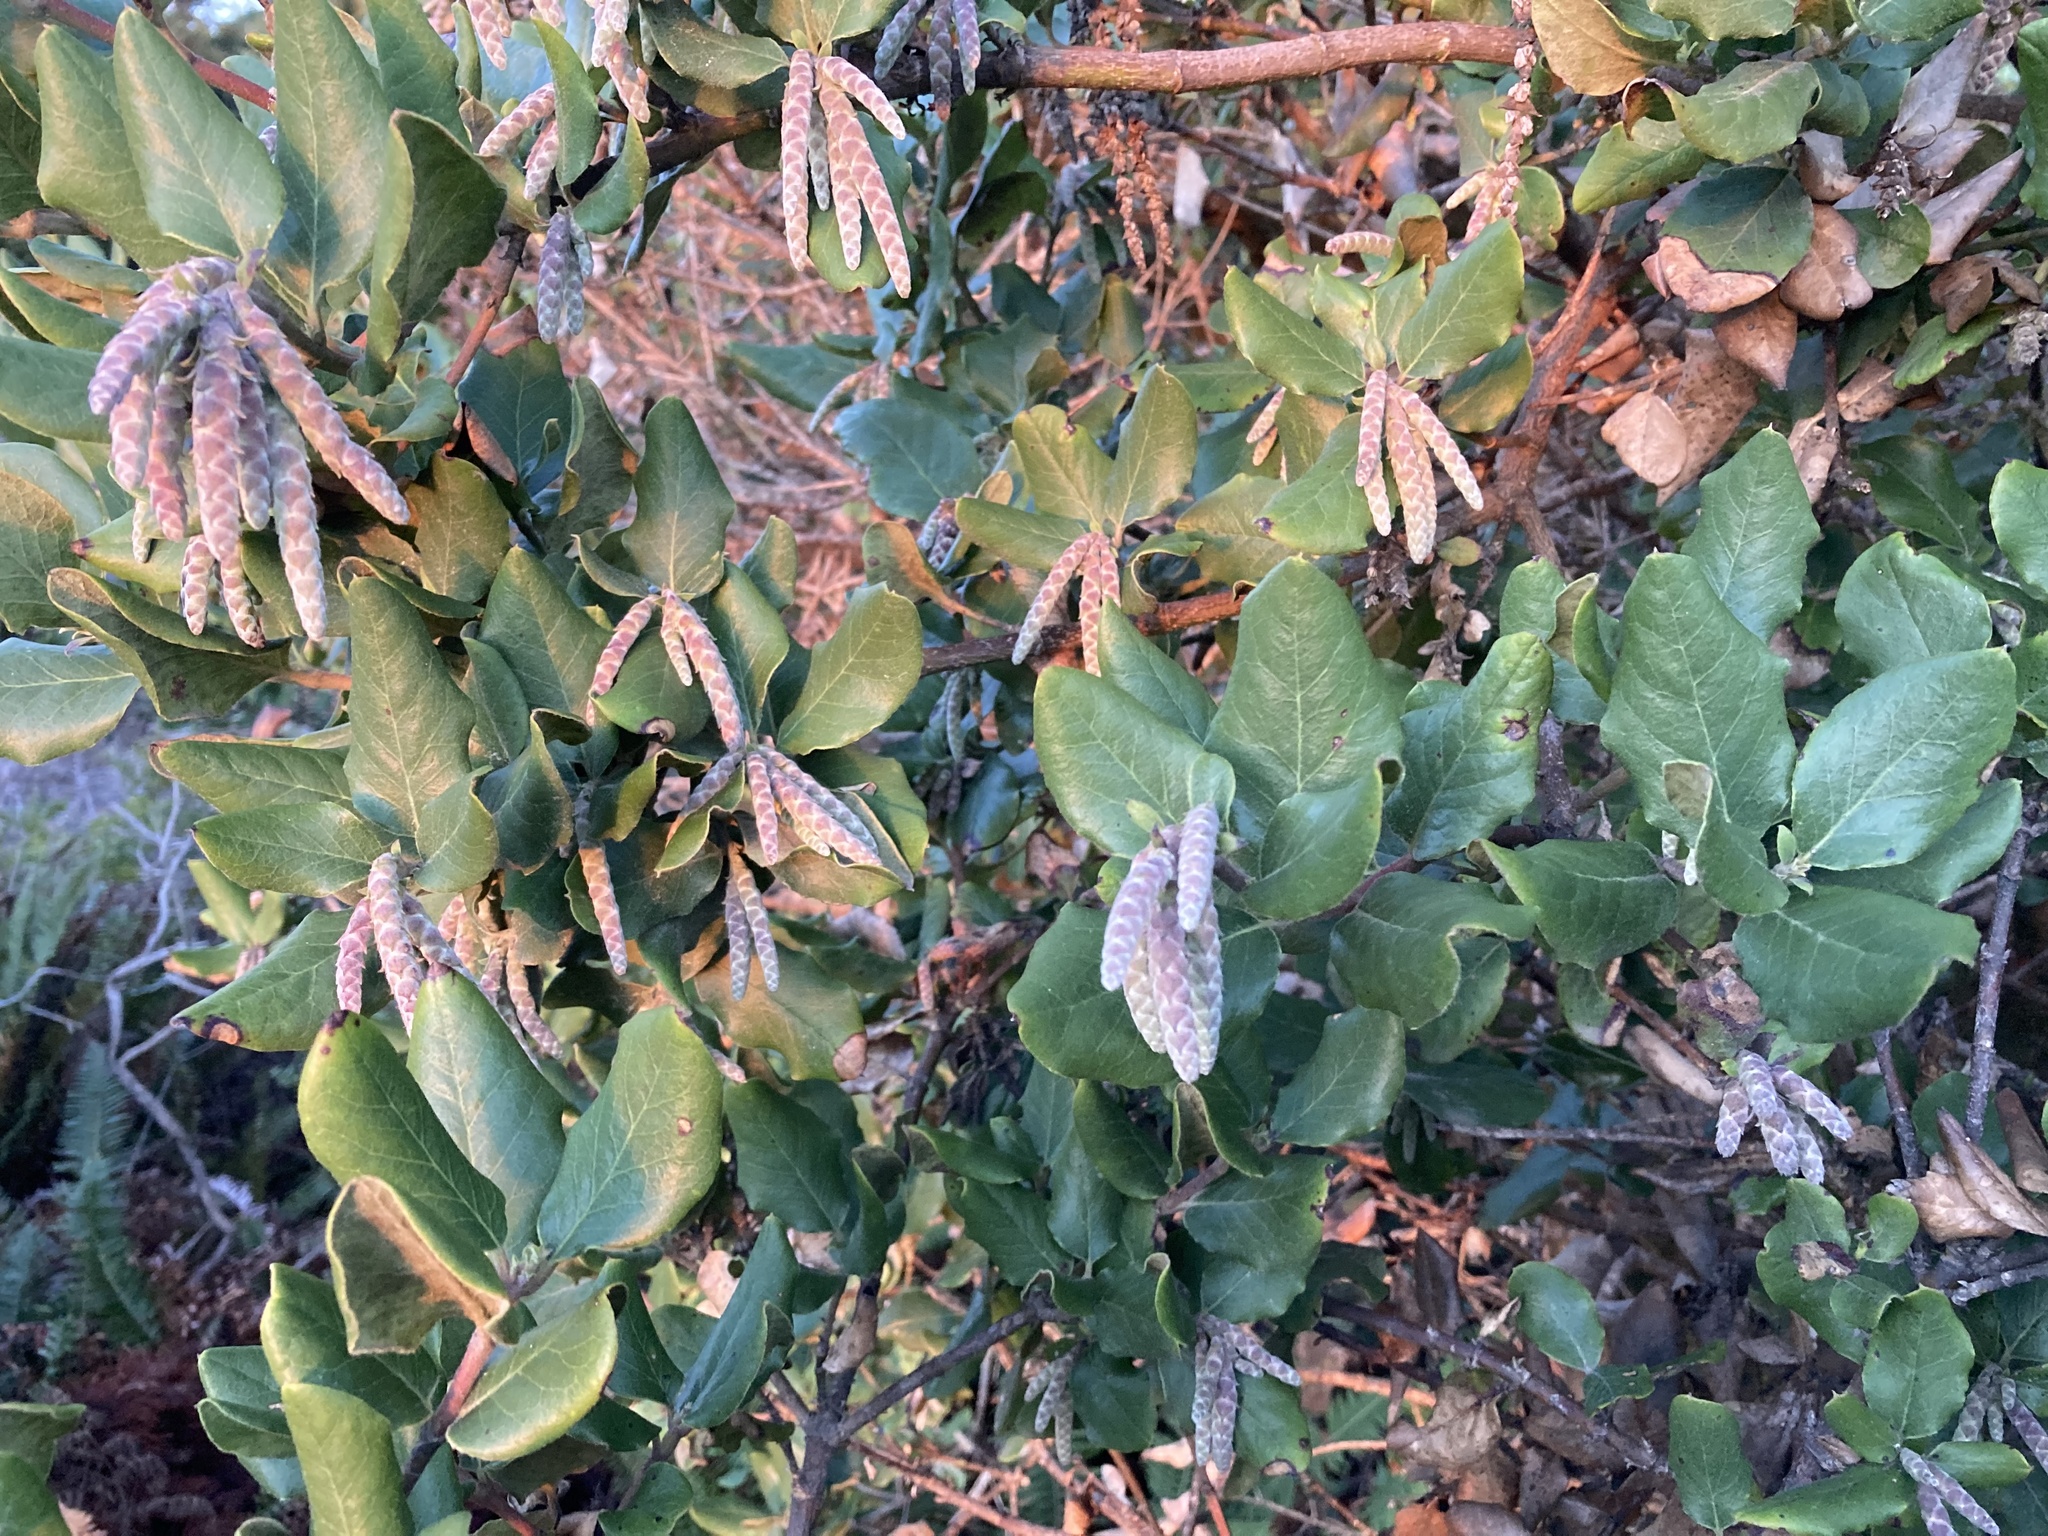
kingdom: Plantae
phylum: Tracheophyta
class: Magnoliopsida
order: Garryales
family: Garryaceae
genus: Garrya
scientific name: Garrya elliptica
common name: Silk-tassel
